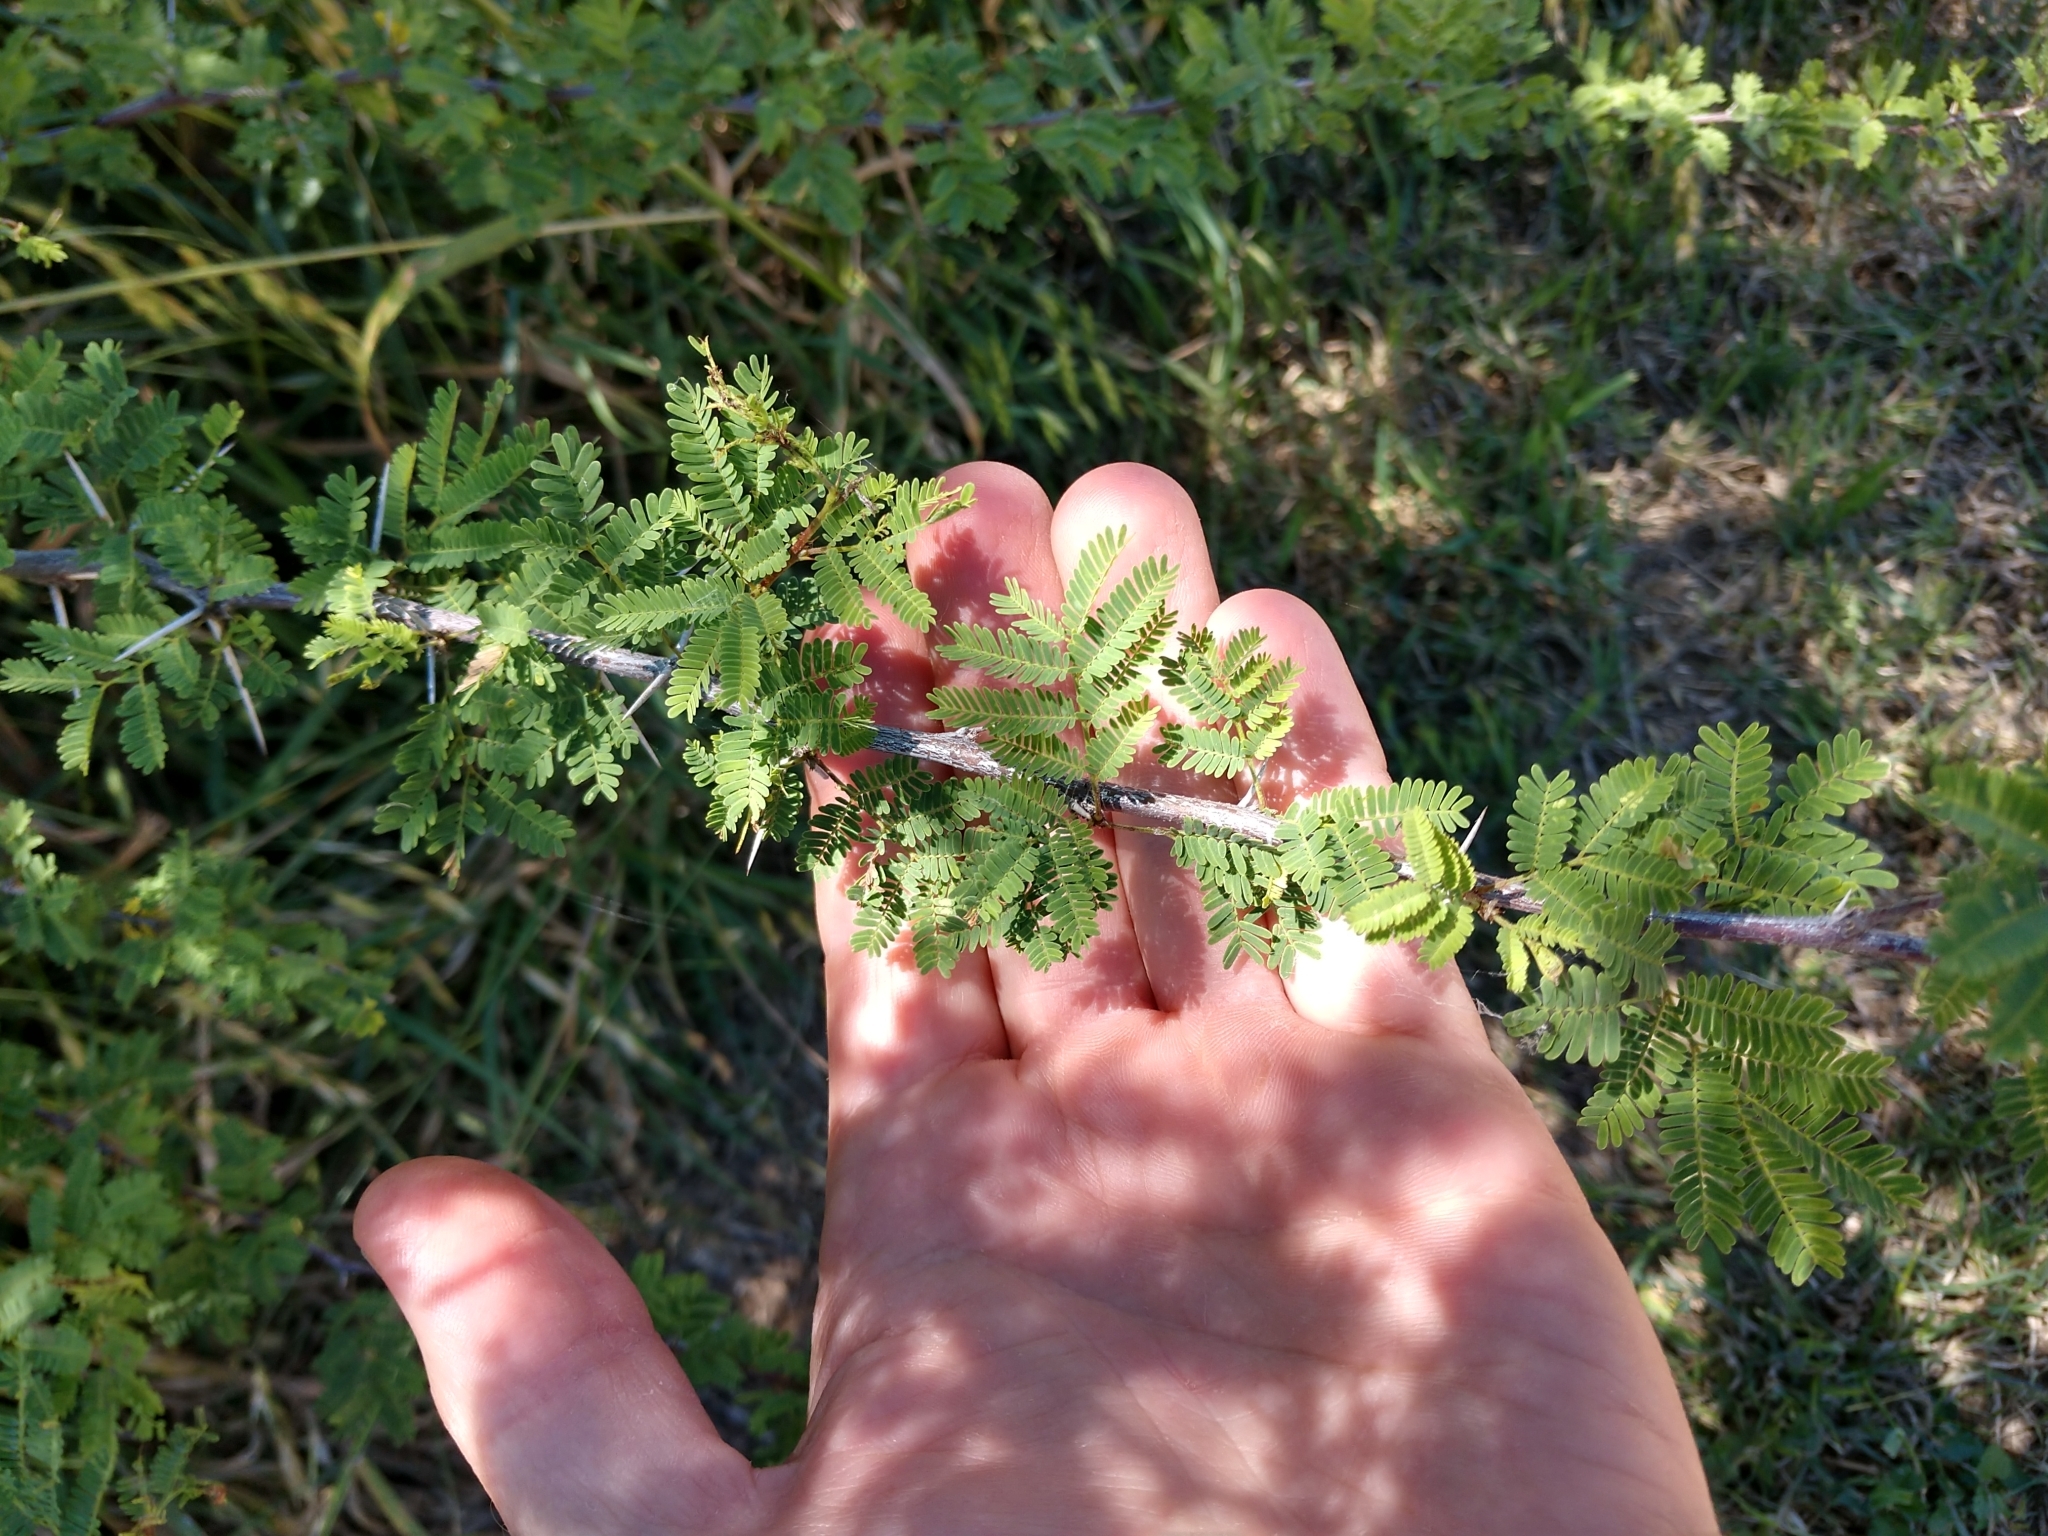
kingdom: Plantae
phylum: Tracheophyta
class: Magnoliopsida
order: Fabales
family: Fabaceae
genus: Vachellia
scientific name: Vachellia farnesiana
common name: Sweet acacia
